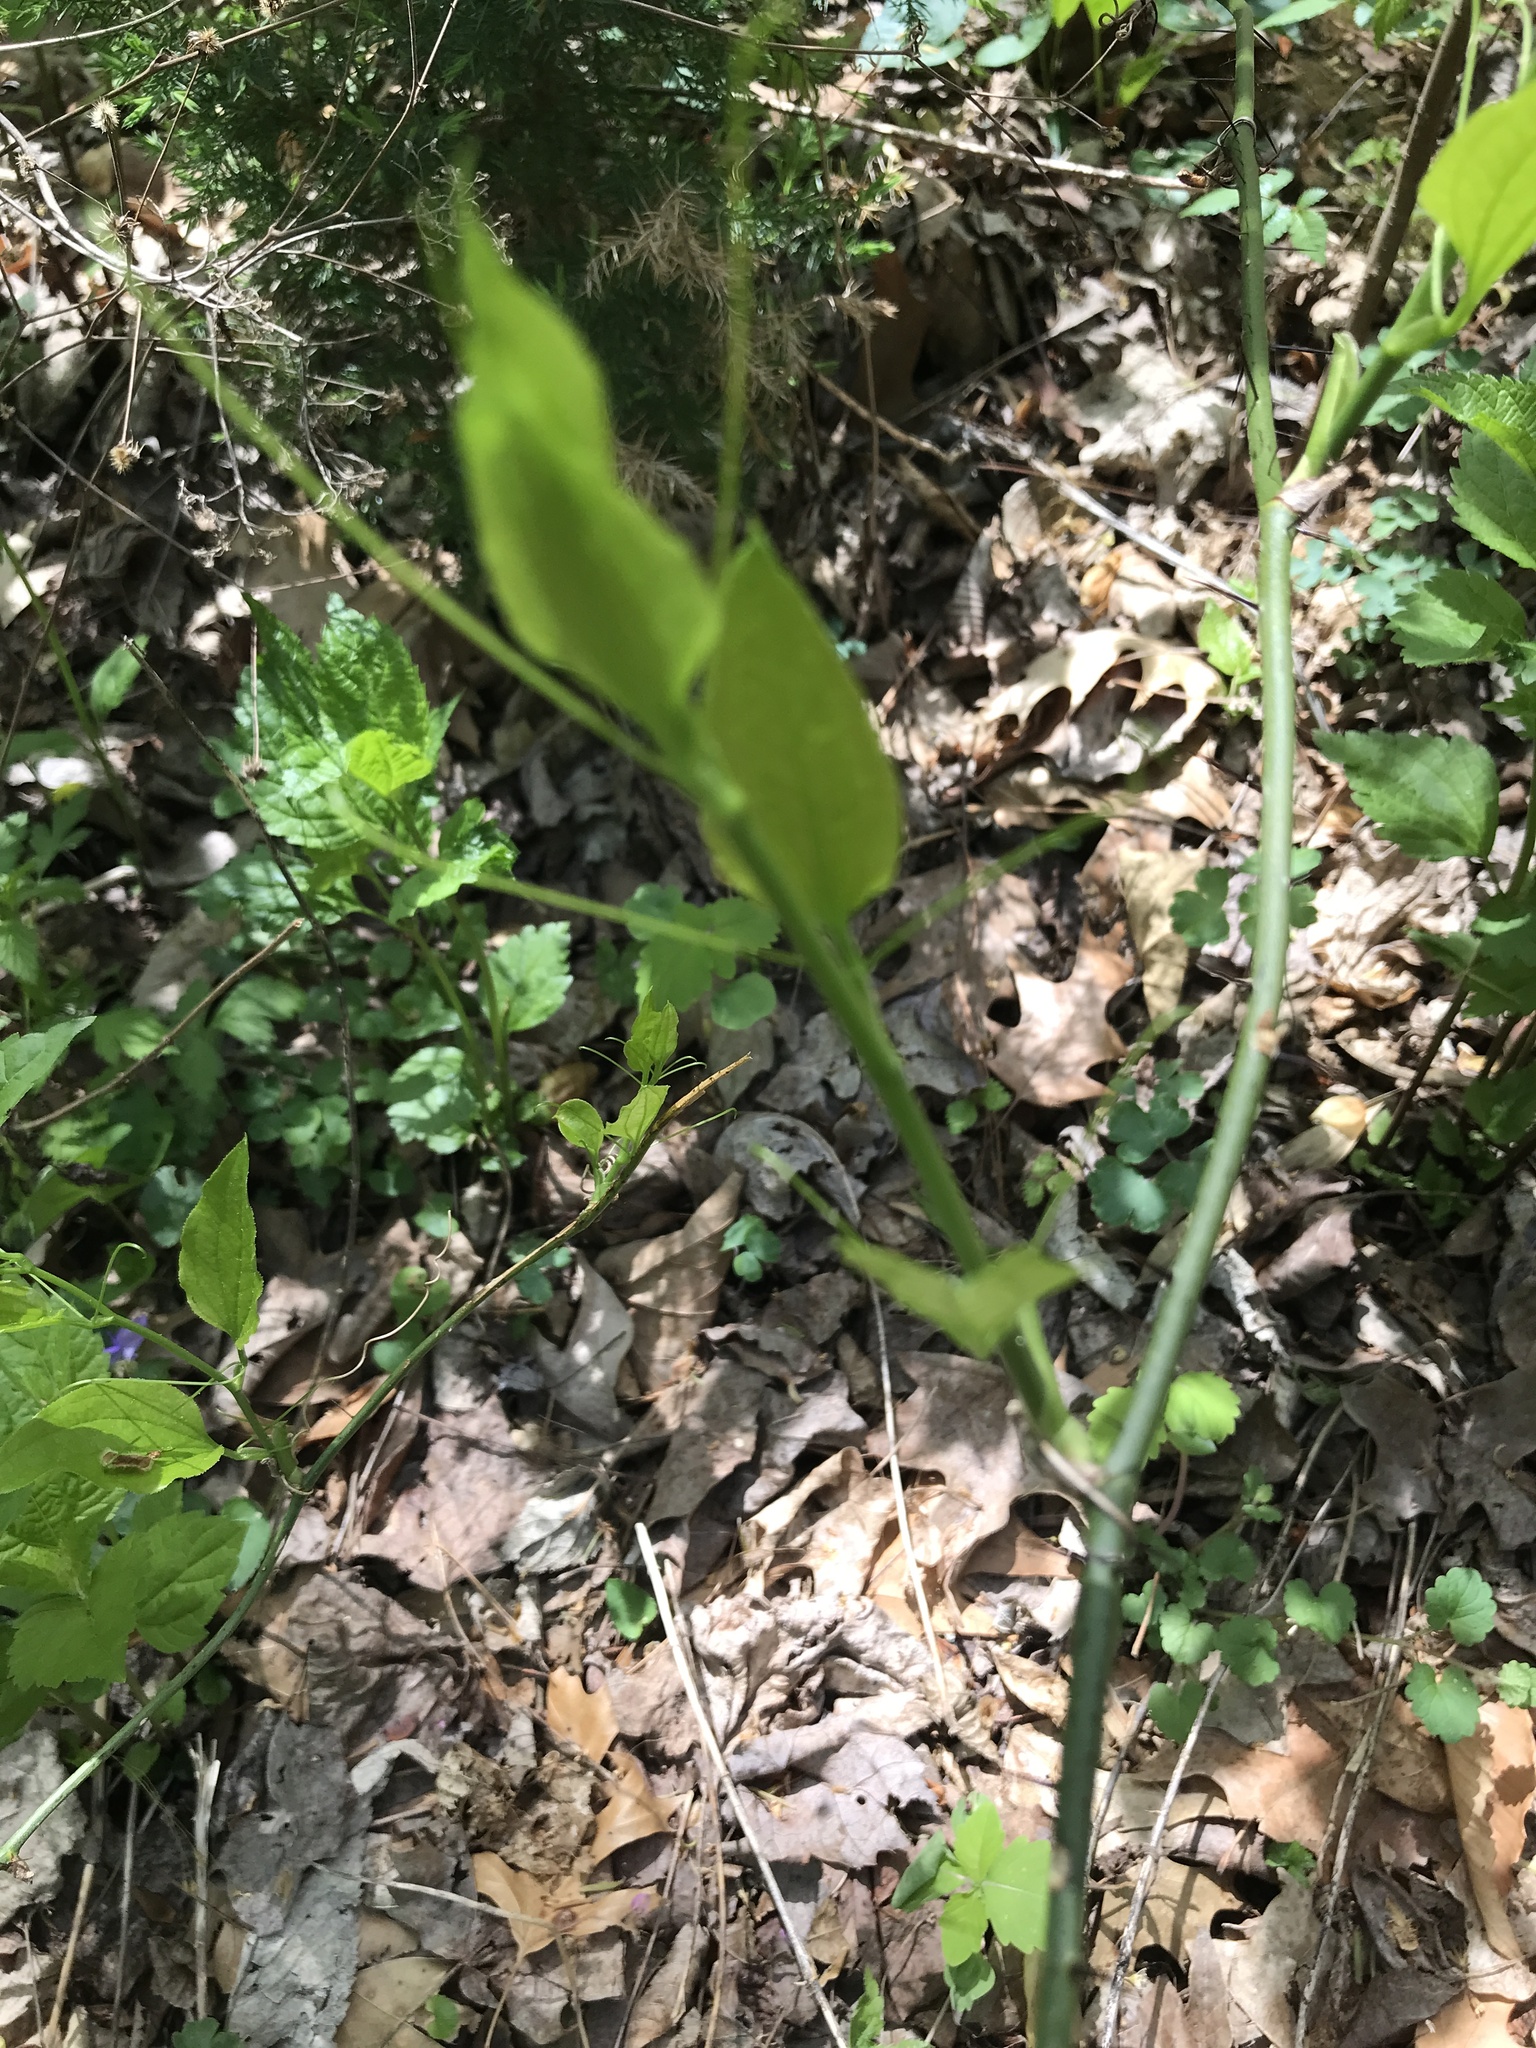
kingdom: Plantae
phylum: Tracheophyta
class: Liliopsida
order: Liliales
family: Smilacaceae
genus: Smilax
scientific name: Smilax tamnoides
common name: Hellfetter
